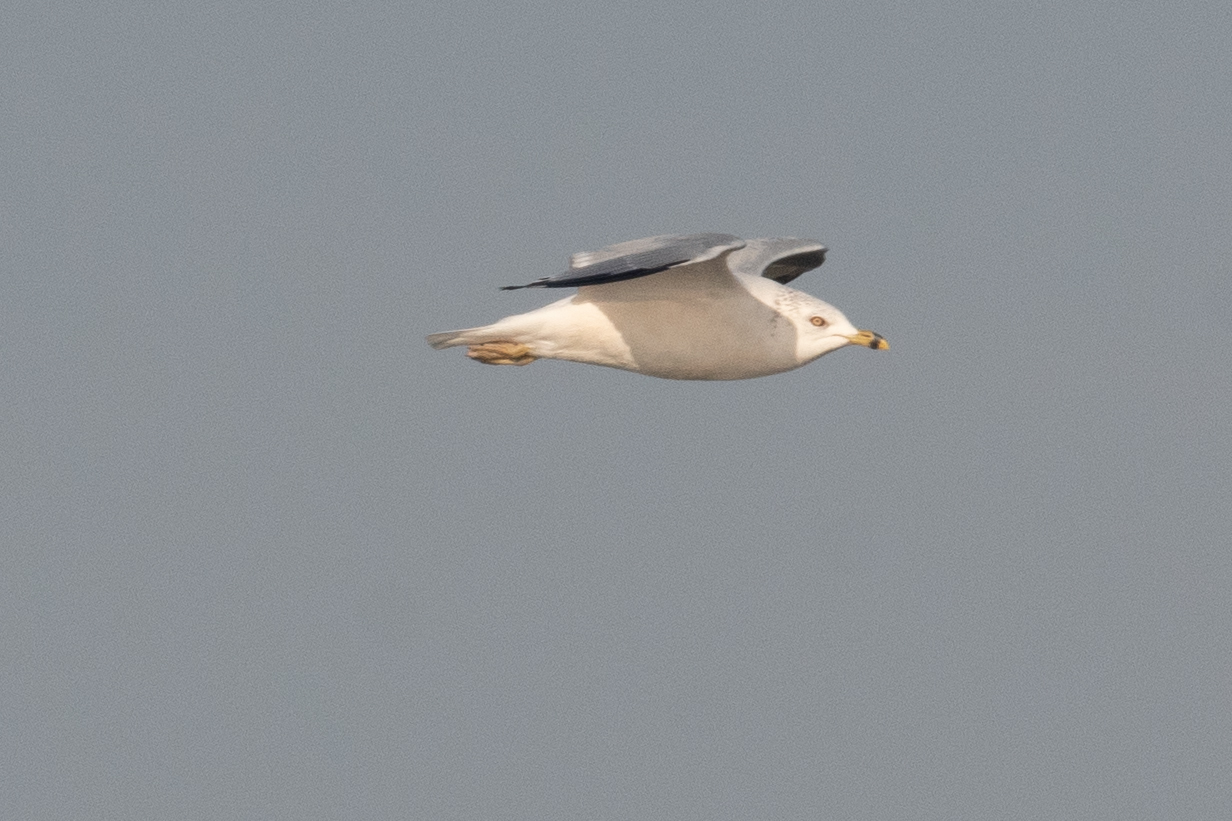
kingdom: Animalia
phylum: Chordata
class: Aves
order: Charadriiformes
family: Laridae
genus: Larus
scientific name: Larus delawarensis
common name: Ring-billed gull
